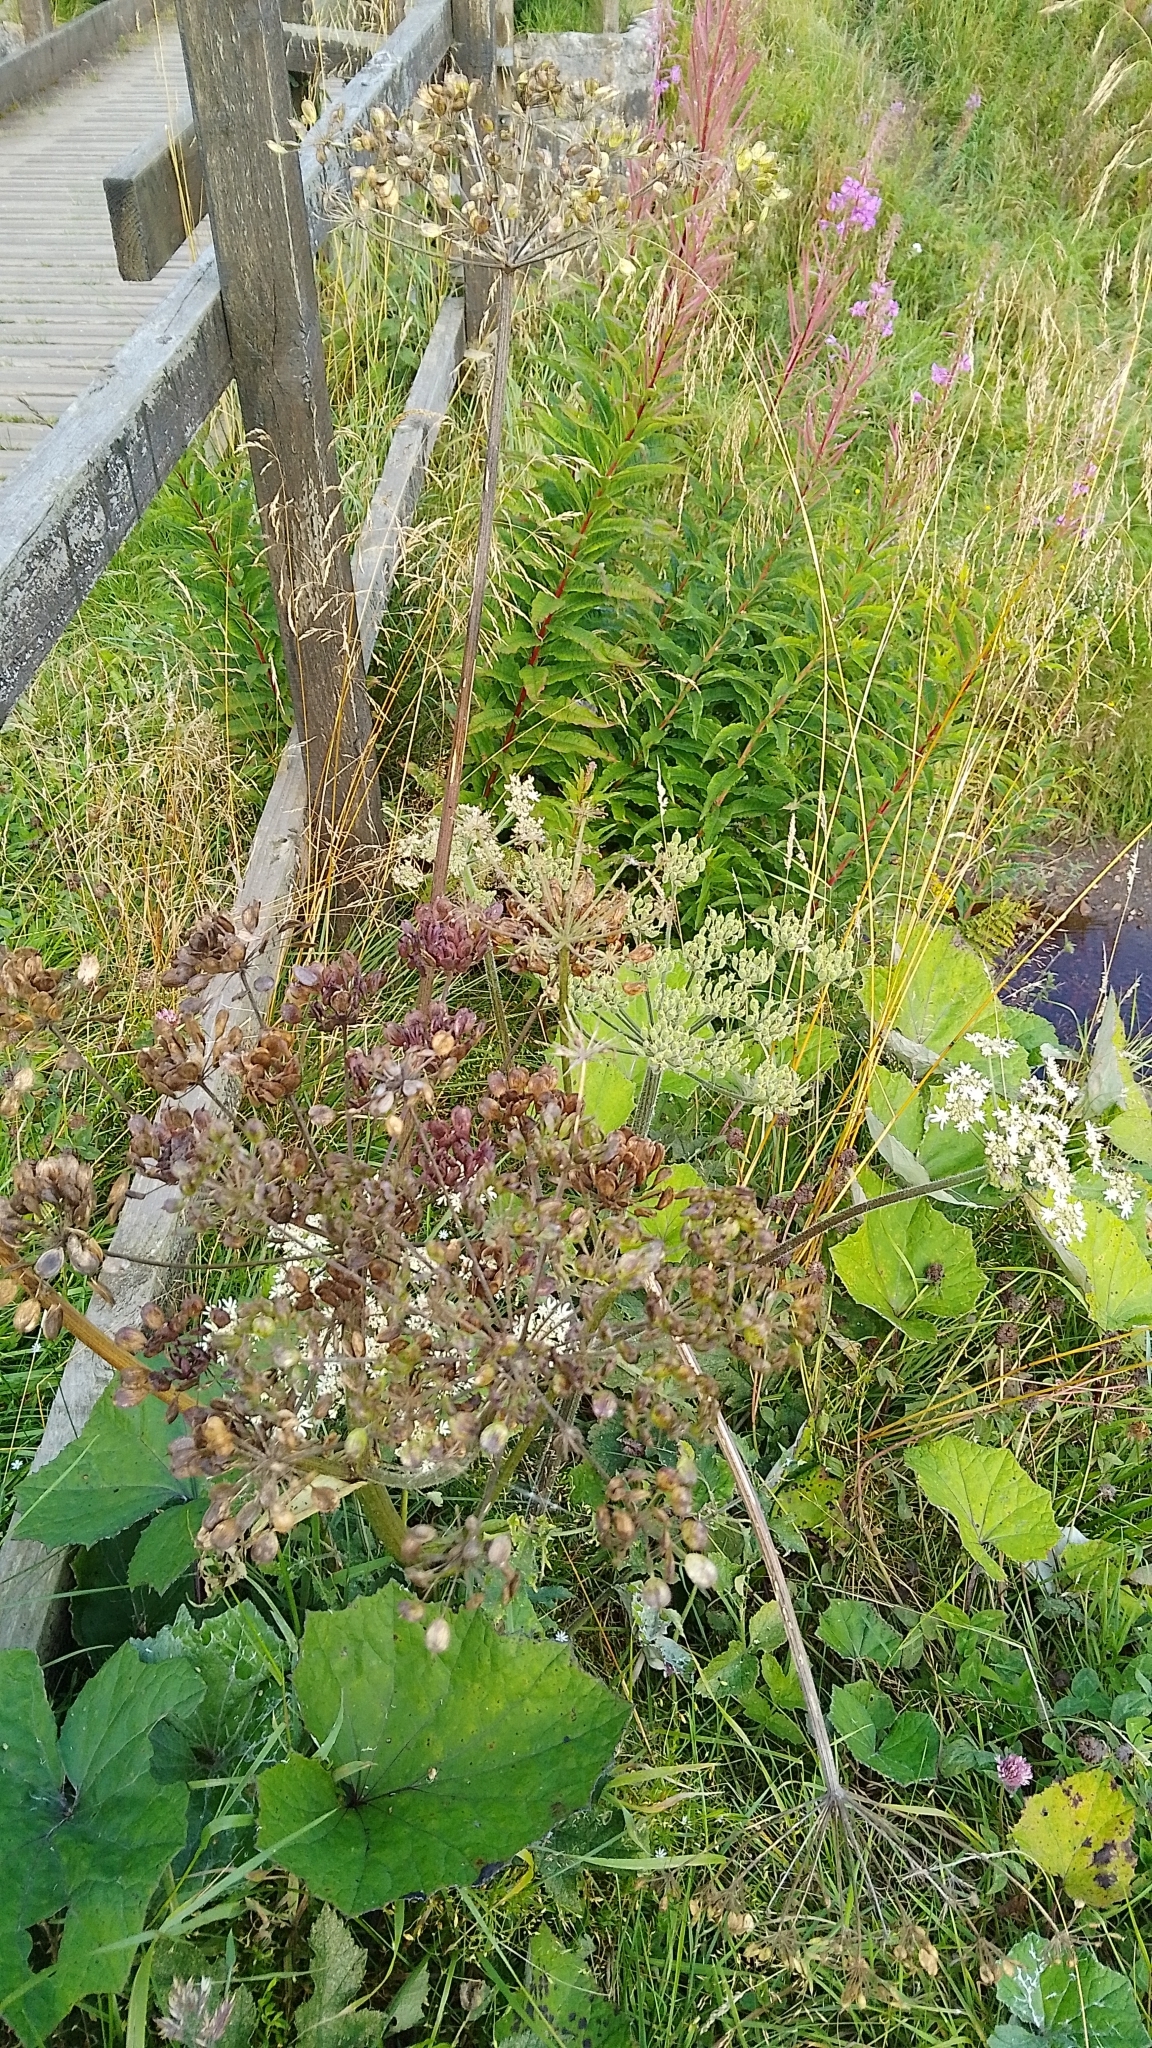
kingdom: Plantae
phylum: Tracheophyta
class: Magnoliopsida
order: Apiales
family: Apiaceae
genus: Heracleum
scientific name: Heracleum sphondylium
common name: Hogweed
